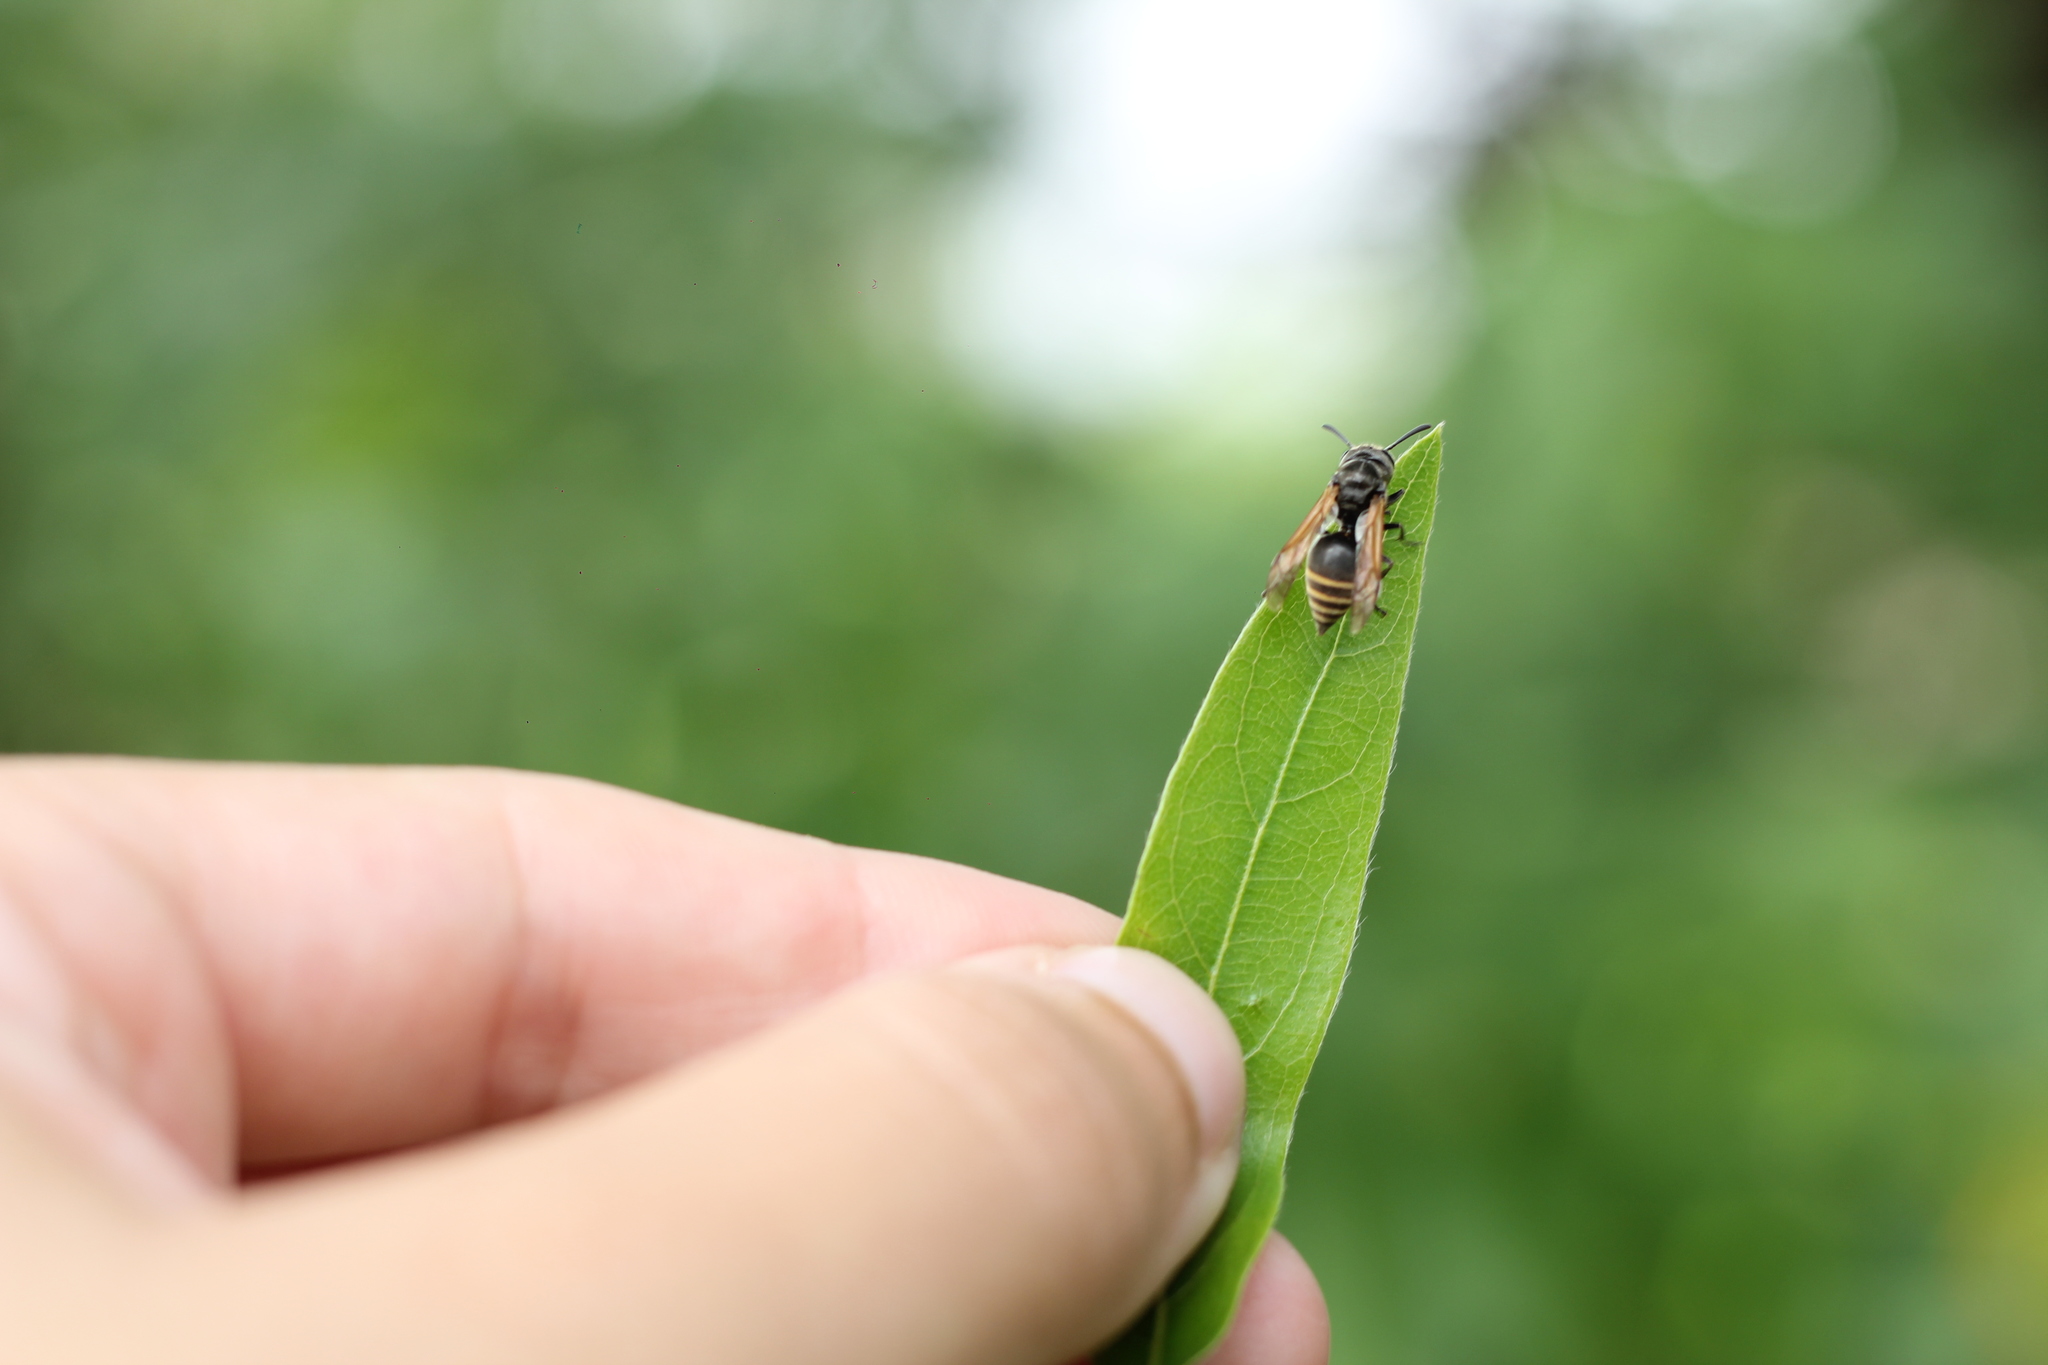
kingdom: Animalia
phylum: Arthropoda
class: Insecta
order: Hymenoptera
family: Vespidae
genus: Brachygastra
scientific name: Brachygastra lecheguana
